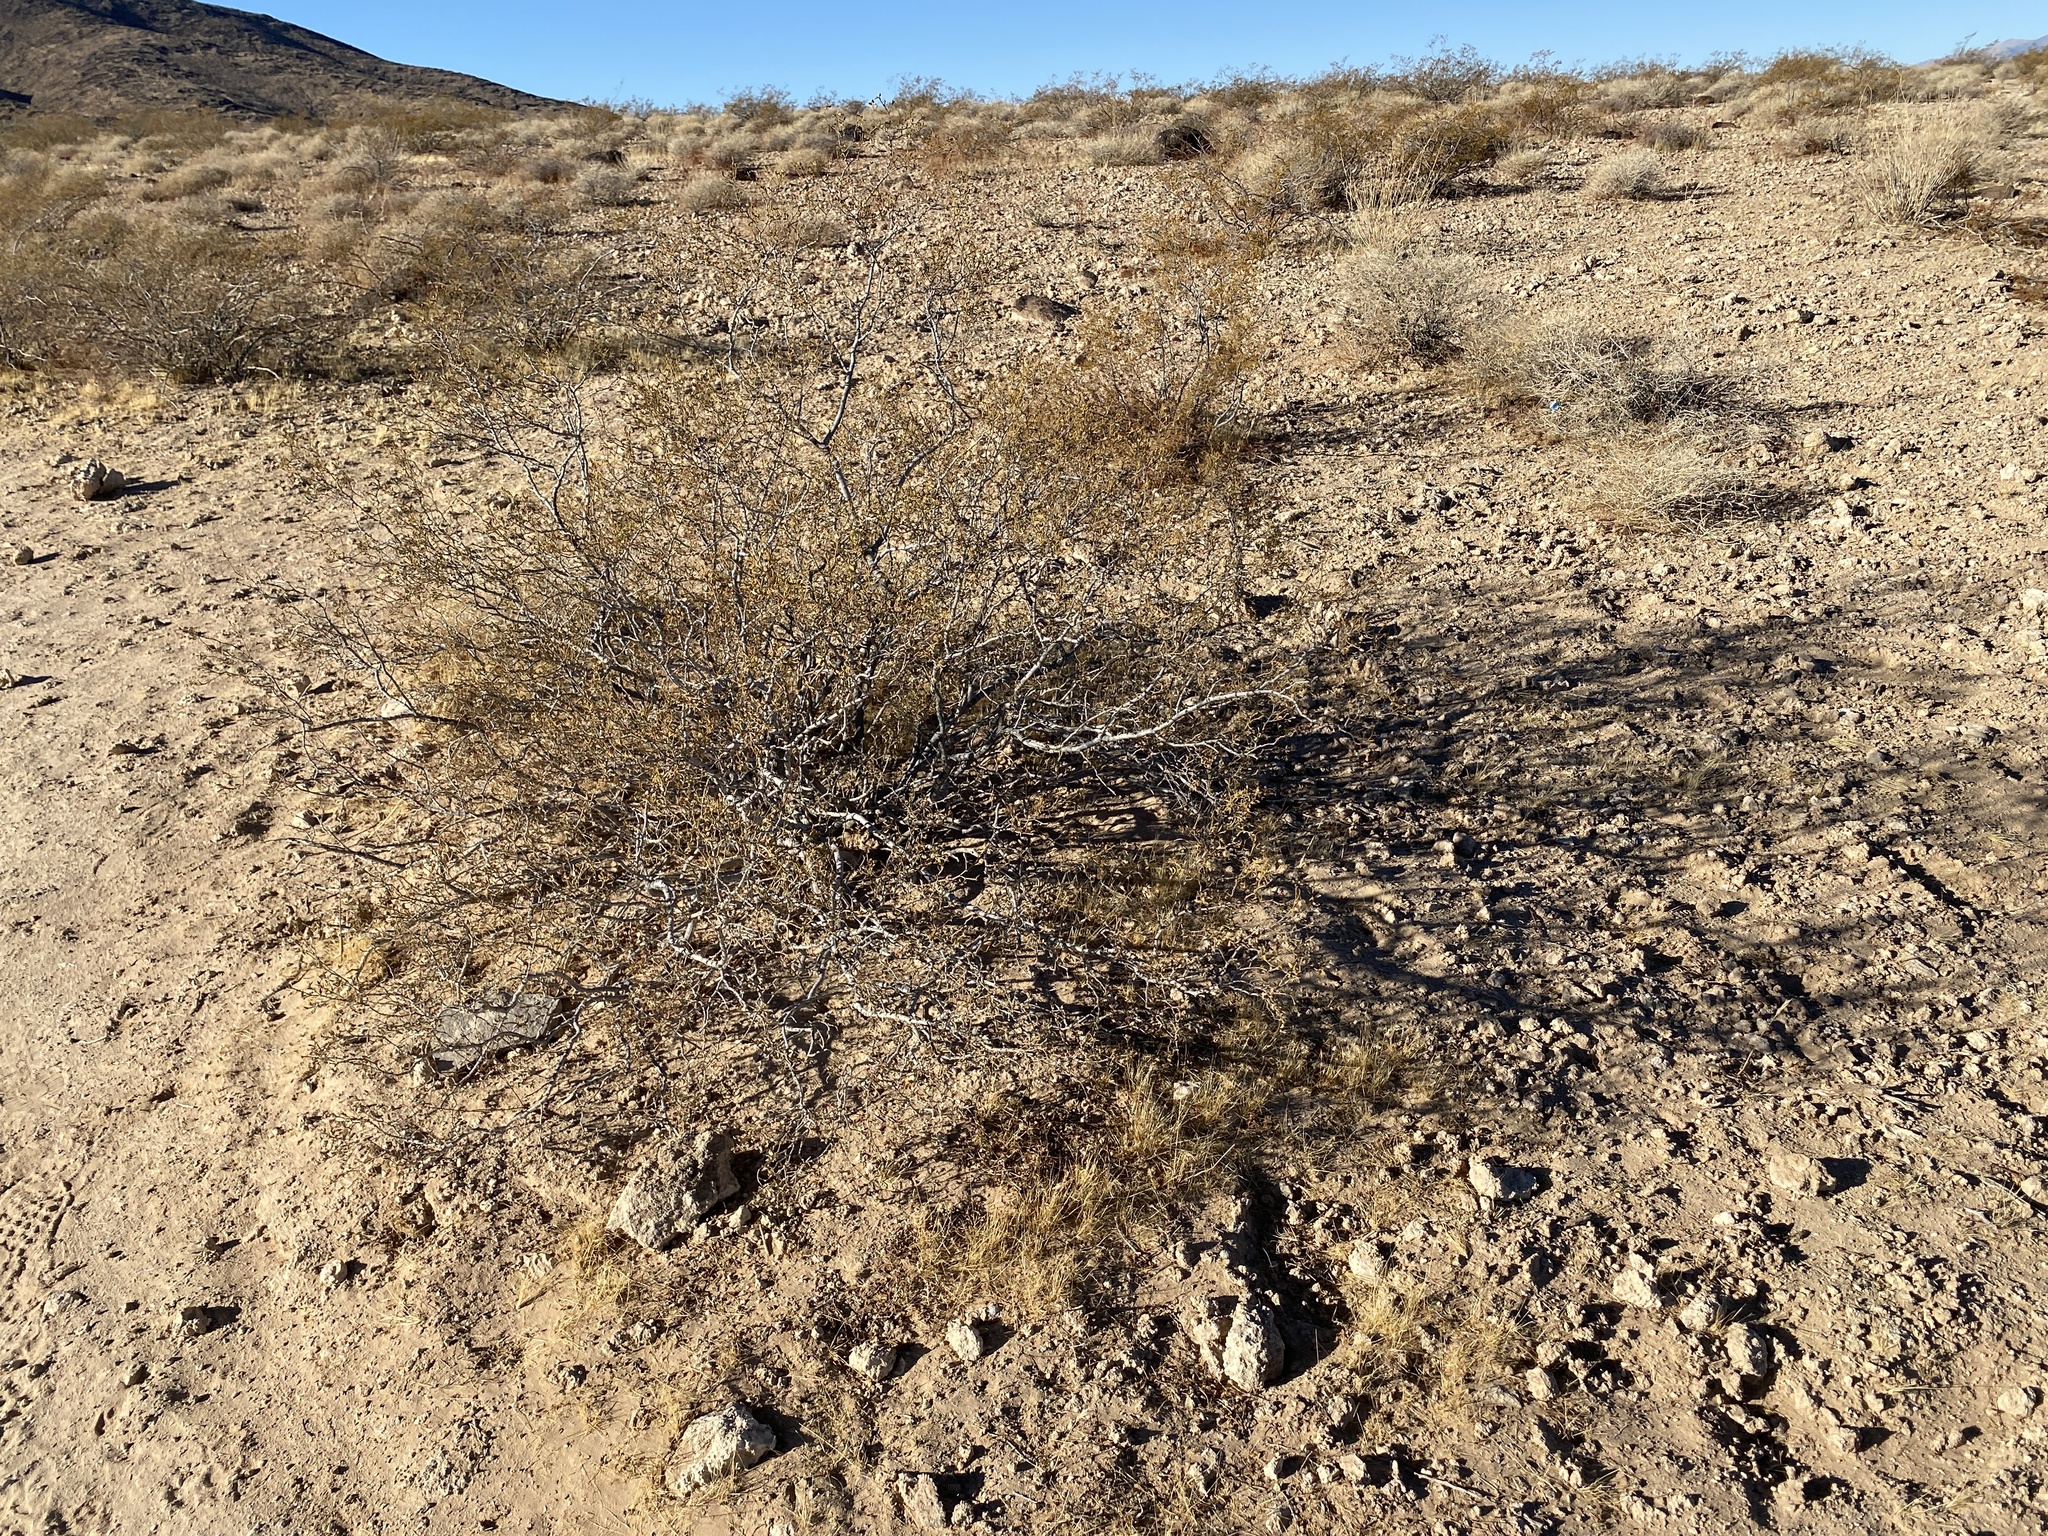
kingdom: Plantae
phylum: Tracheophyta
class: Magnoliopsida
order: Zygophyllales
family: Zygophyllaceae
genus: Larrea
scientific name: Larrea tridentata
